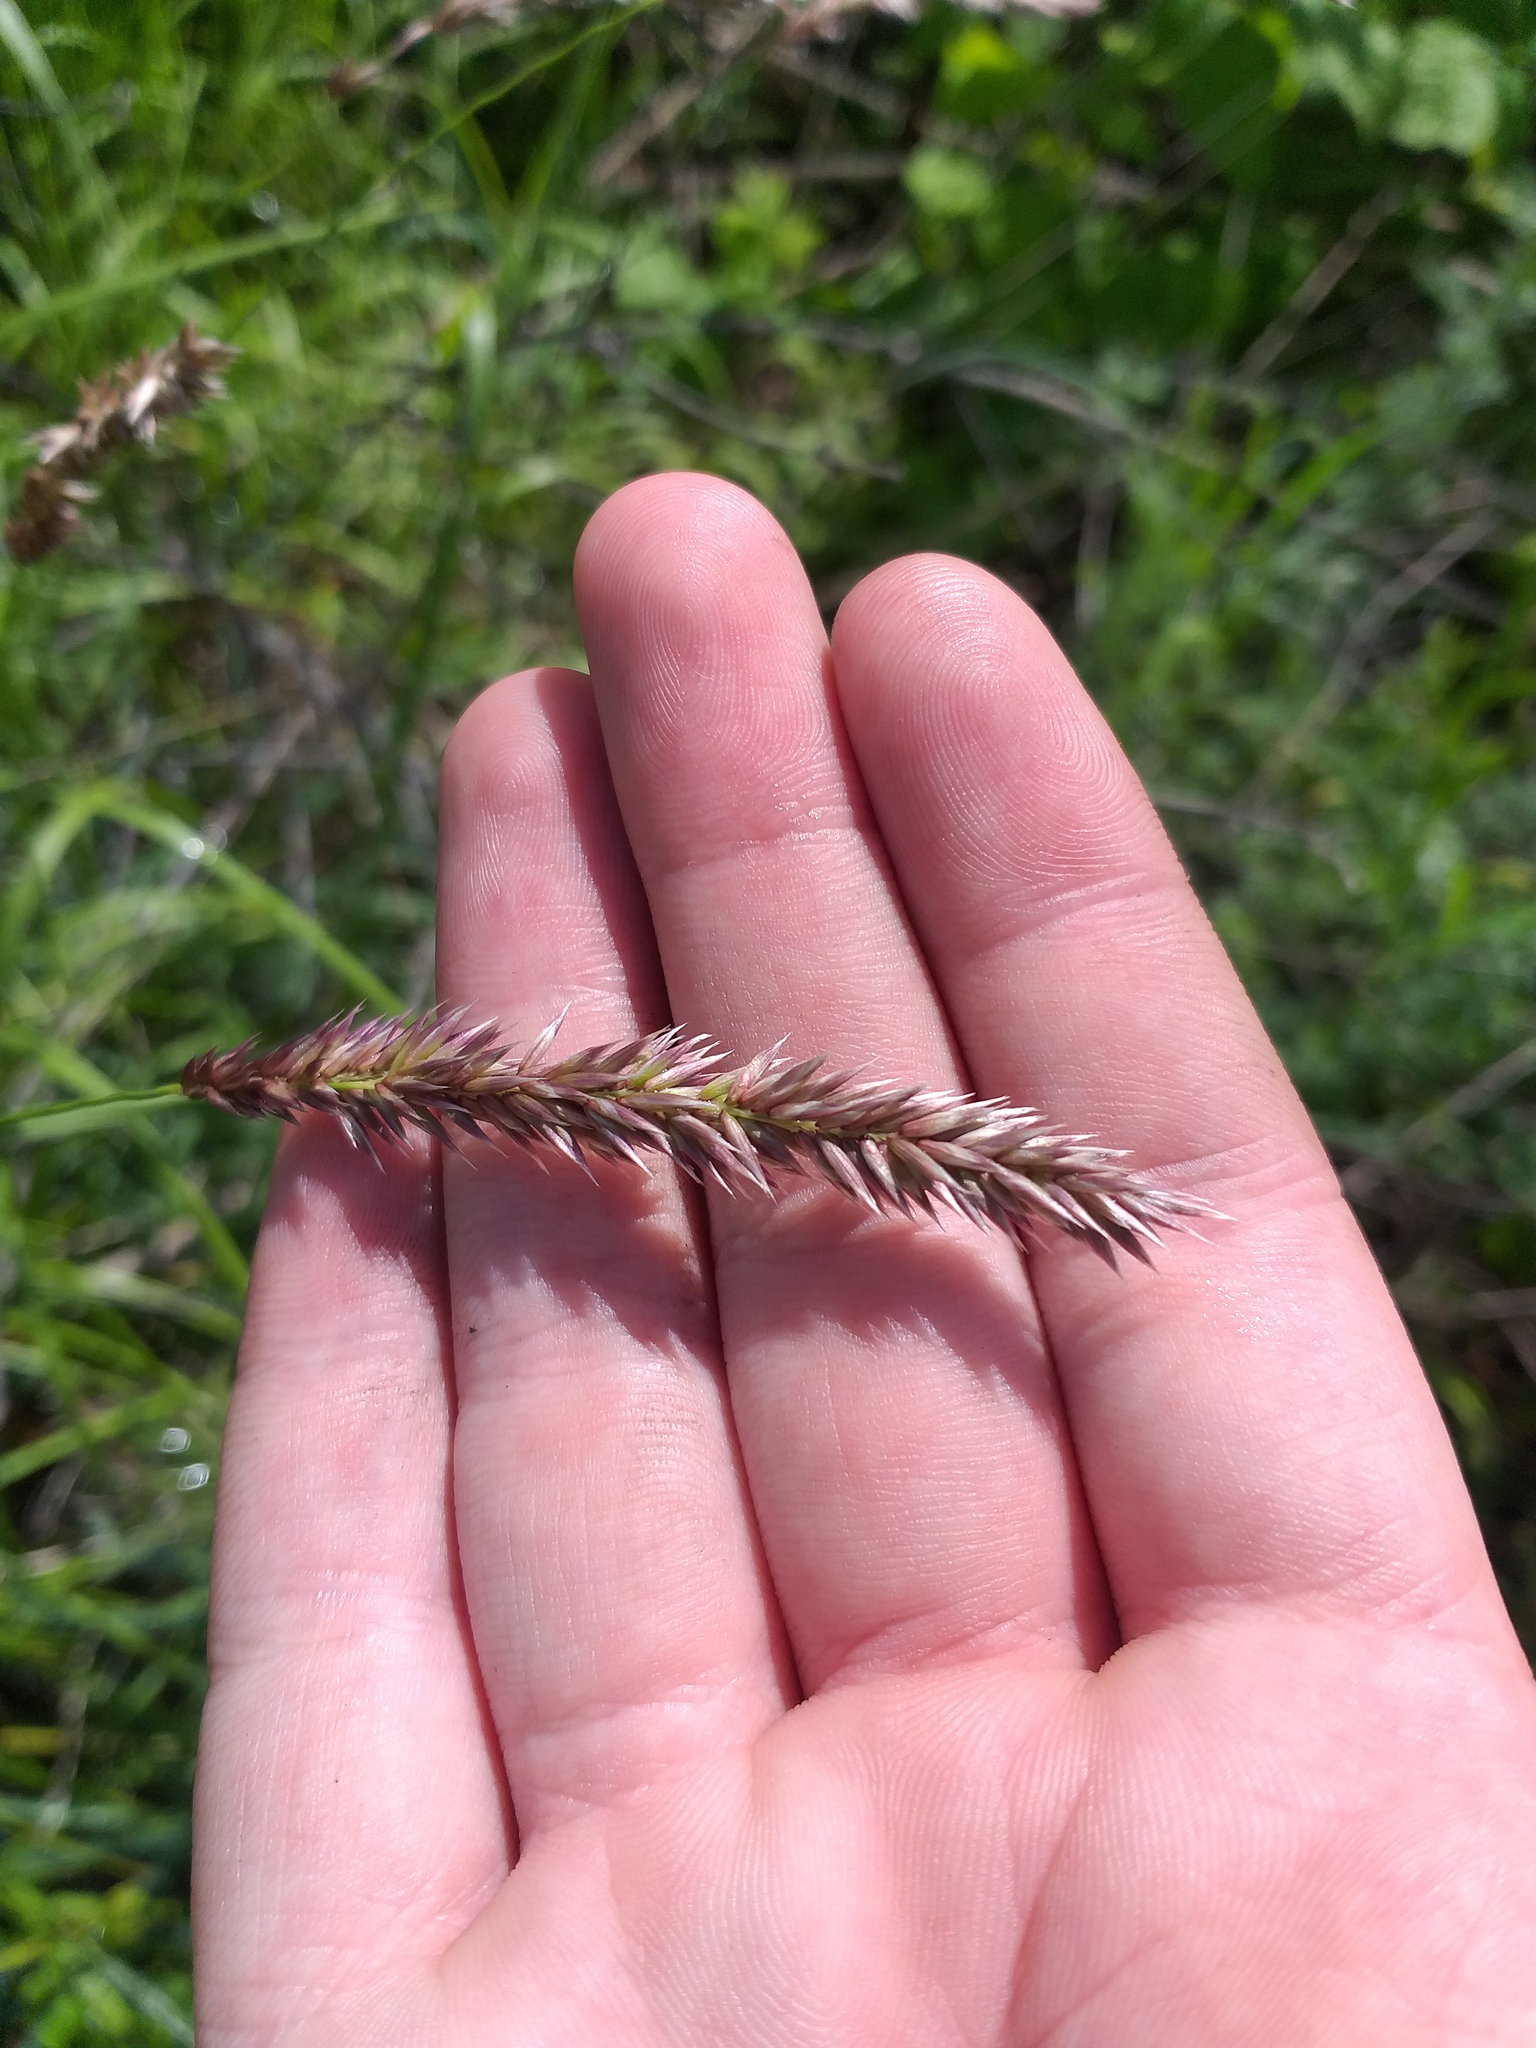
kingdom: Plantae
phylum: Tracheophyta
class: Liliopsida
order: Poales
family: Poaceae
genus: Melica
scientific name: Melica altissima
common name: Siberian melicgrass
